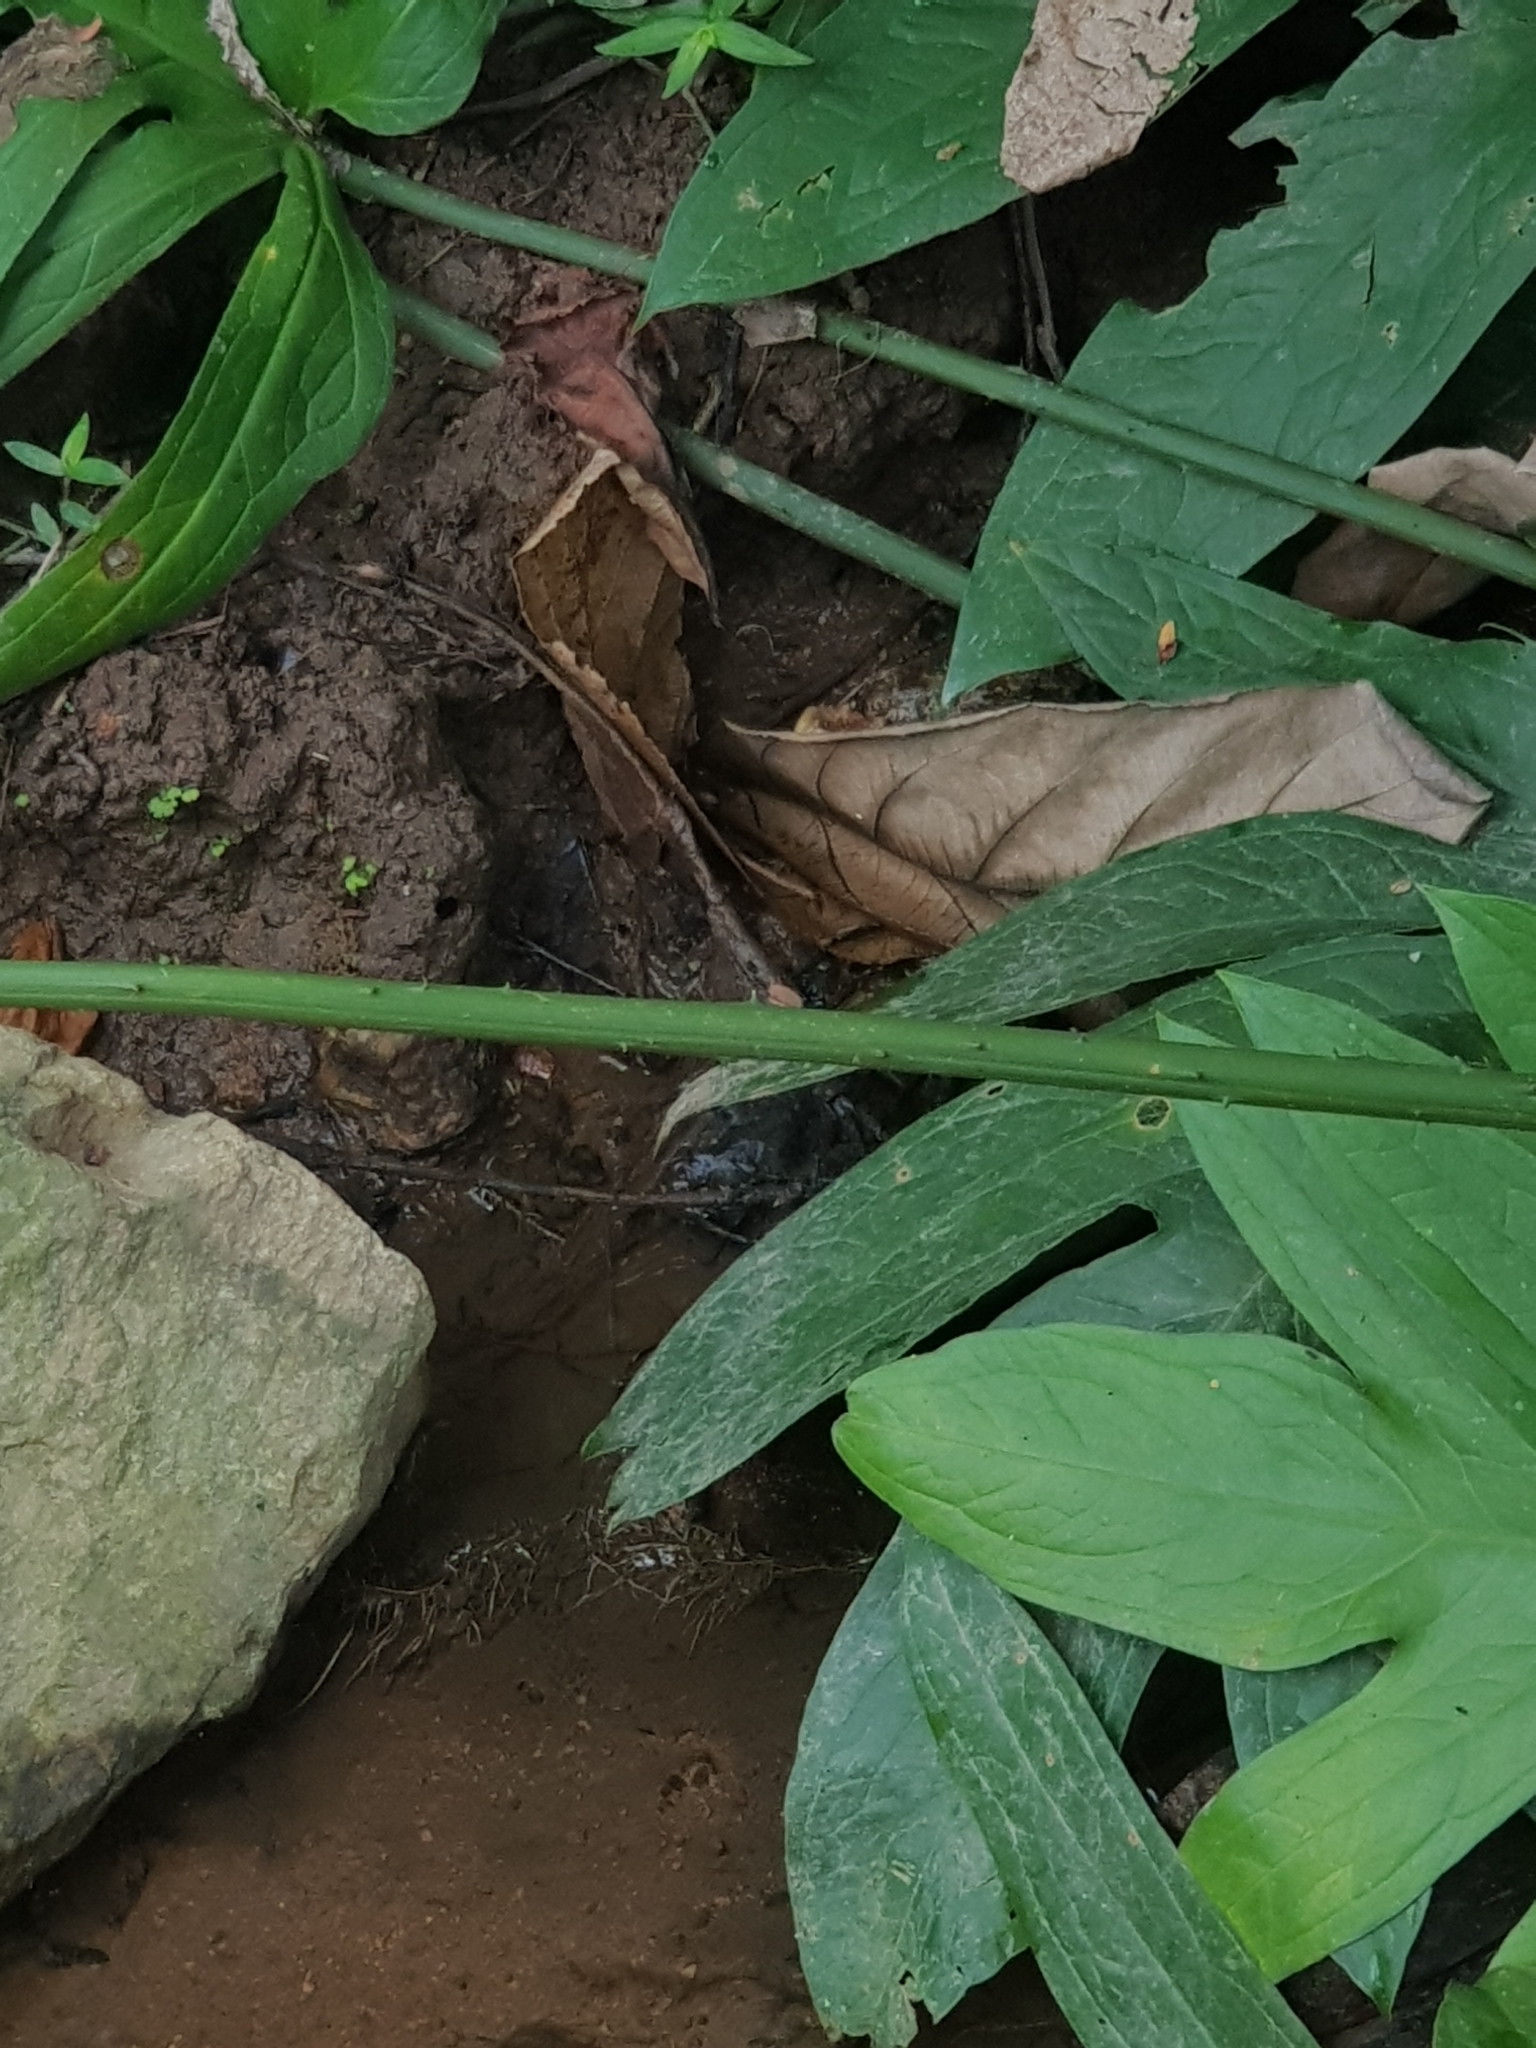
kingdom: Plantae
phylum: Tracheophyta
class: Liliopsida
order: Alismatales
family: Araceae
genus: Lasia
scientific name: Lasia spinosa
